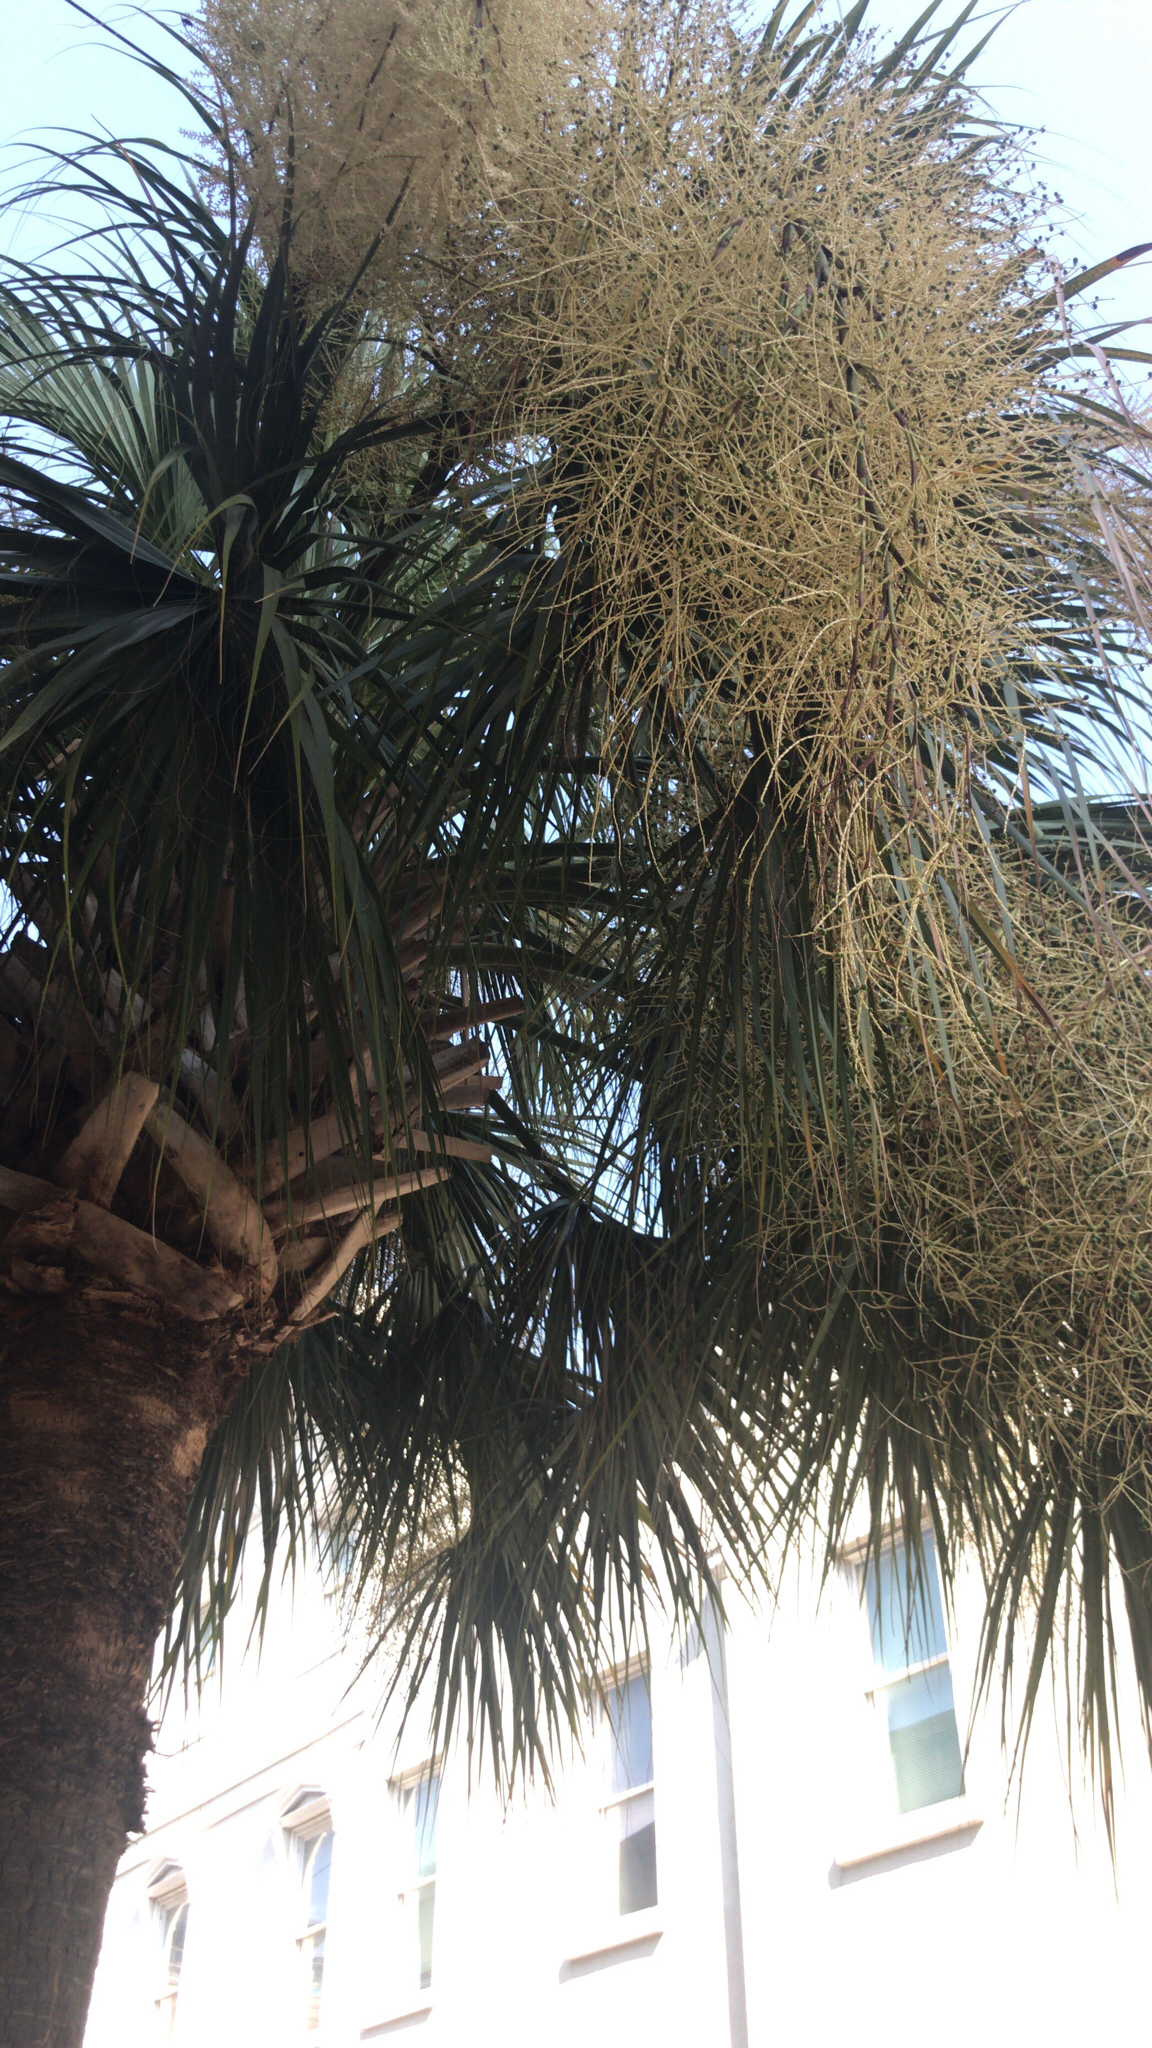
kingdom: Plantae
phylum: Tracheophyta
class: Liliopsida
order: Arecales
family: Arecaceae
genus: Sabal
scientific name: Sabal palmetto
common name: Blue palmetto
